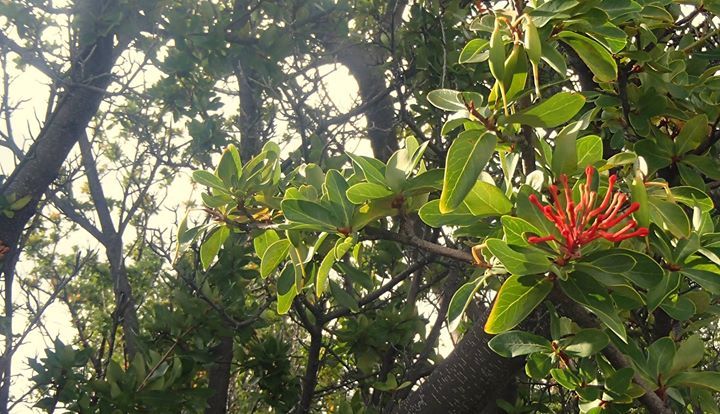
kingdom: Plantae
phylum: Tracheophyta
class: Magnoliopsida
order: Proteales
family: Proteaceae
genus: Embothrium
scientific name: Embothrium coccineum
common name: Chilean firebush
